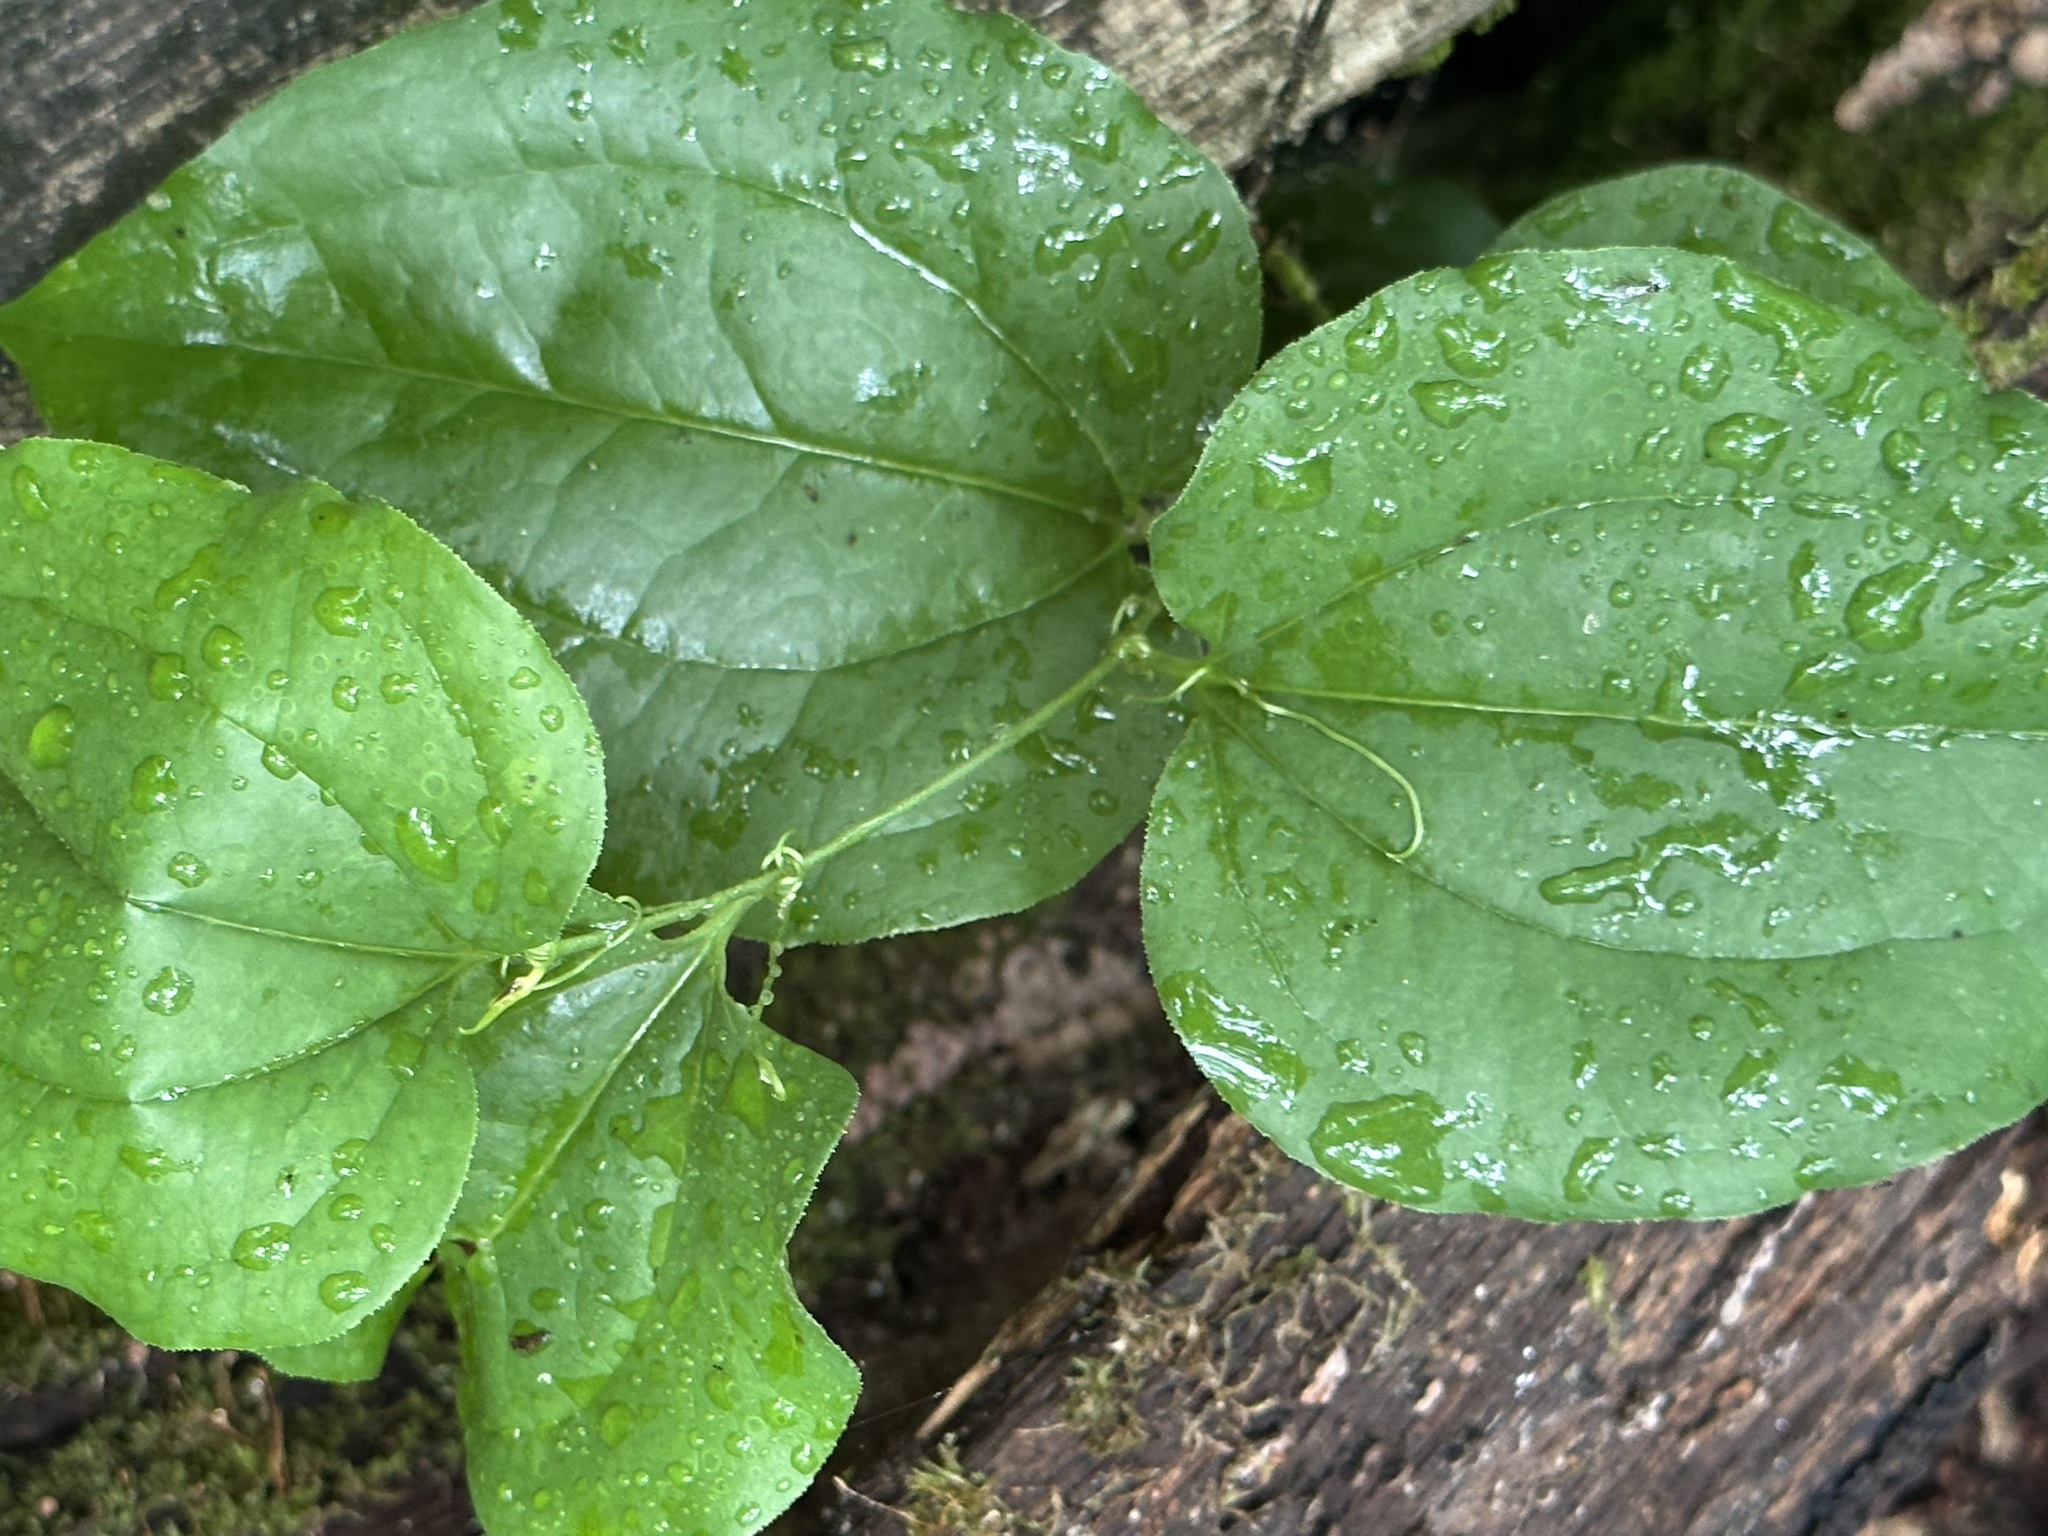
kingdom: Plantae
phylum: Tracheophyta
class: Liliopsida
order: Liliales
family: Smilacaceae
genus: Smilax
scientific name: Smilax tamnoides
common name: Hellfetter
